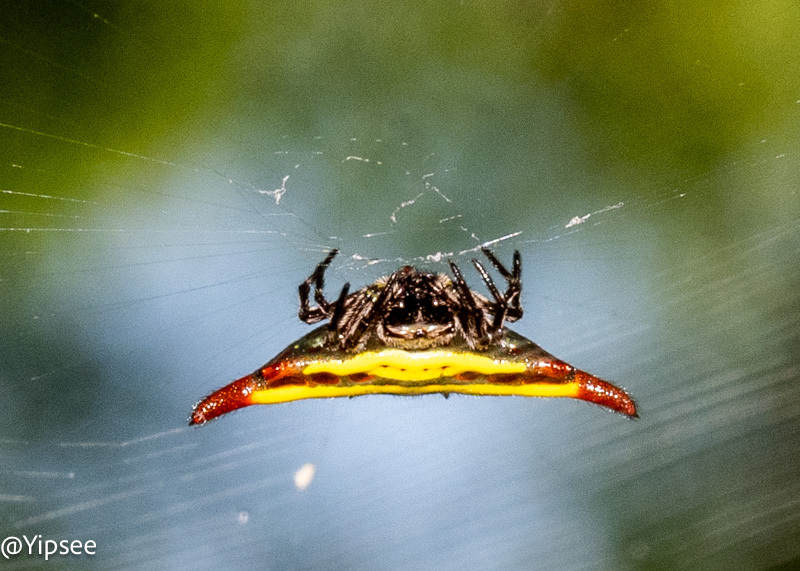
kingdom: Animalia
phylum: Arthropoda
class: Arachnida
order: Araneae
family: Araneidae
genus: Gasteracantha
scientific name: Gasteracantha diadesmia
